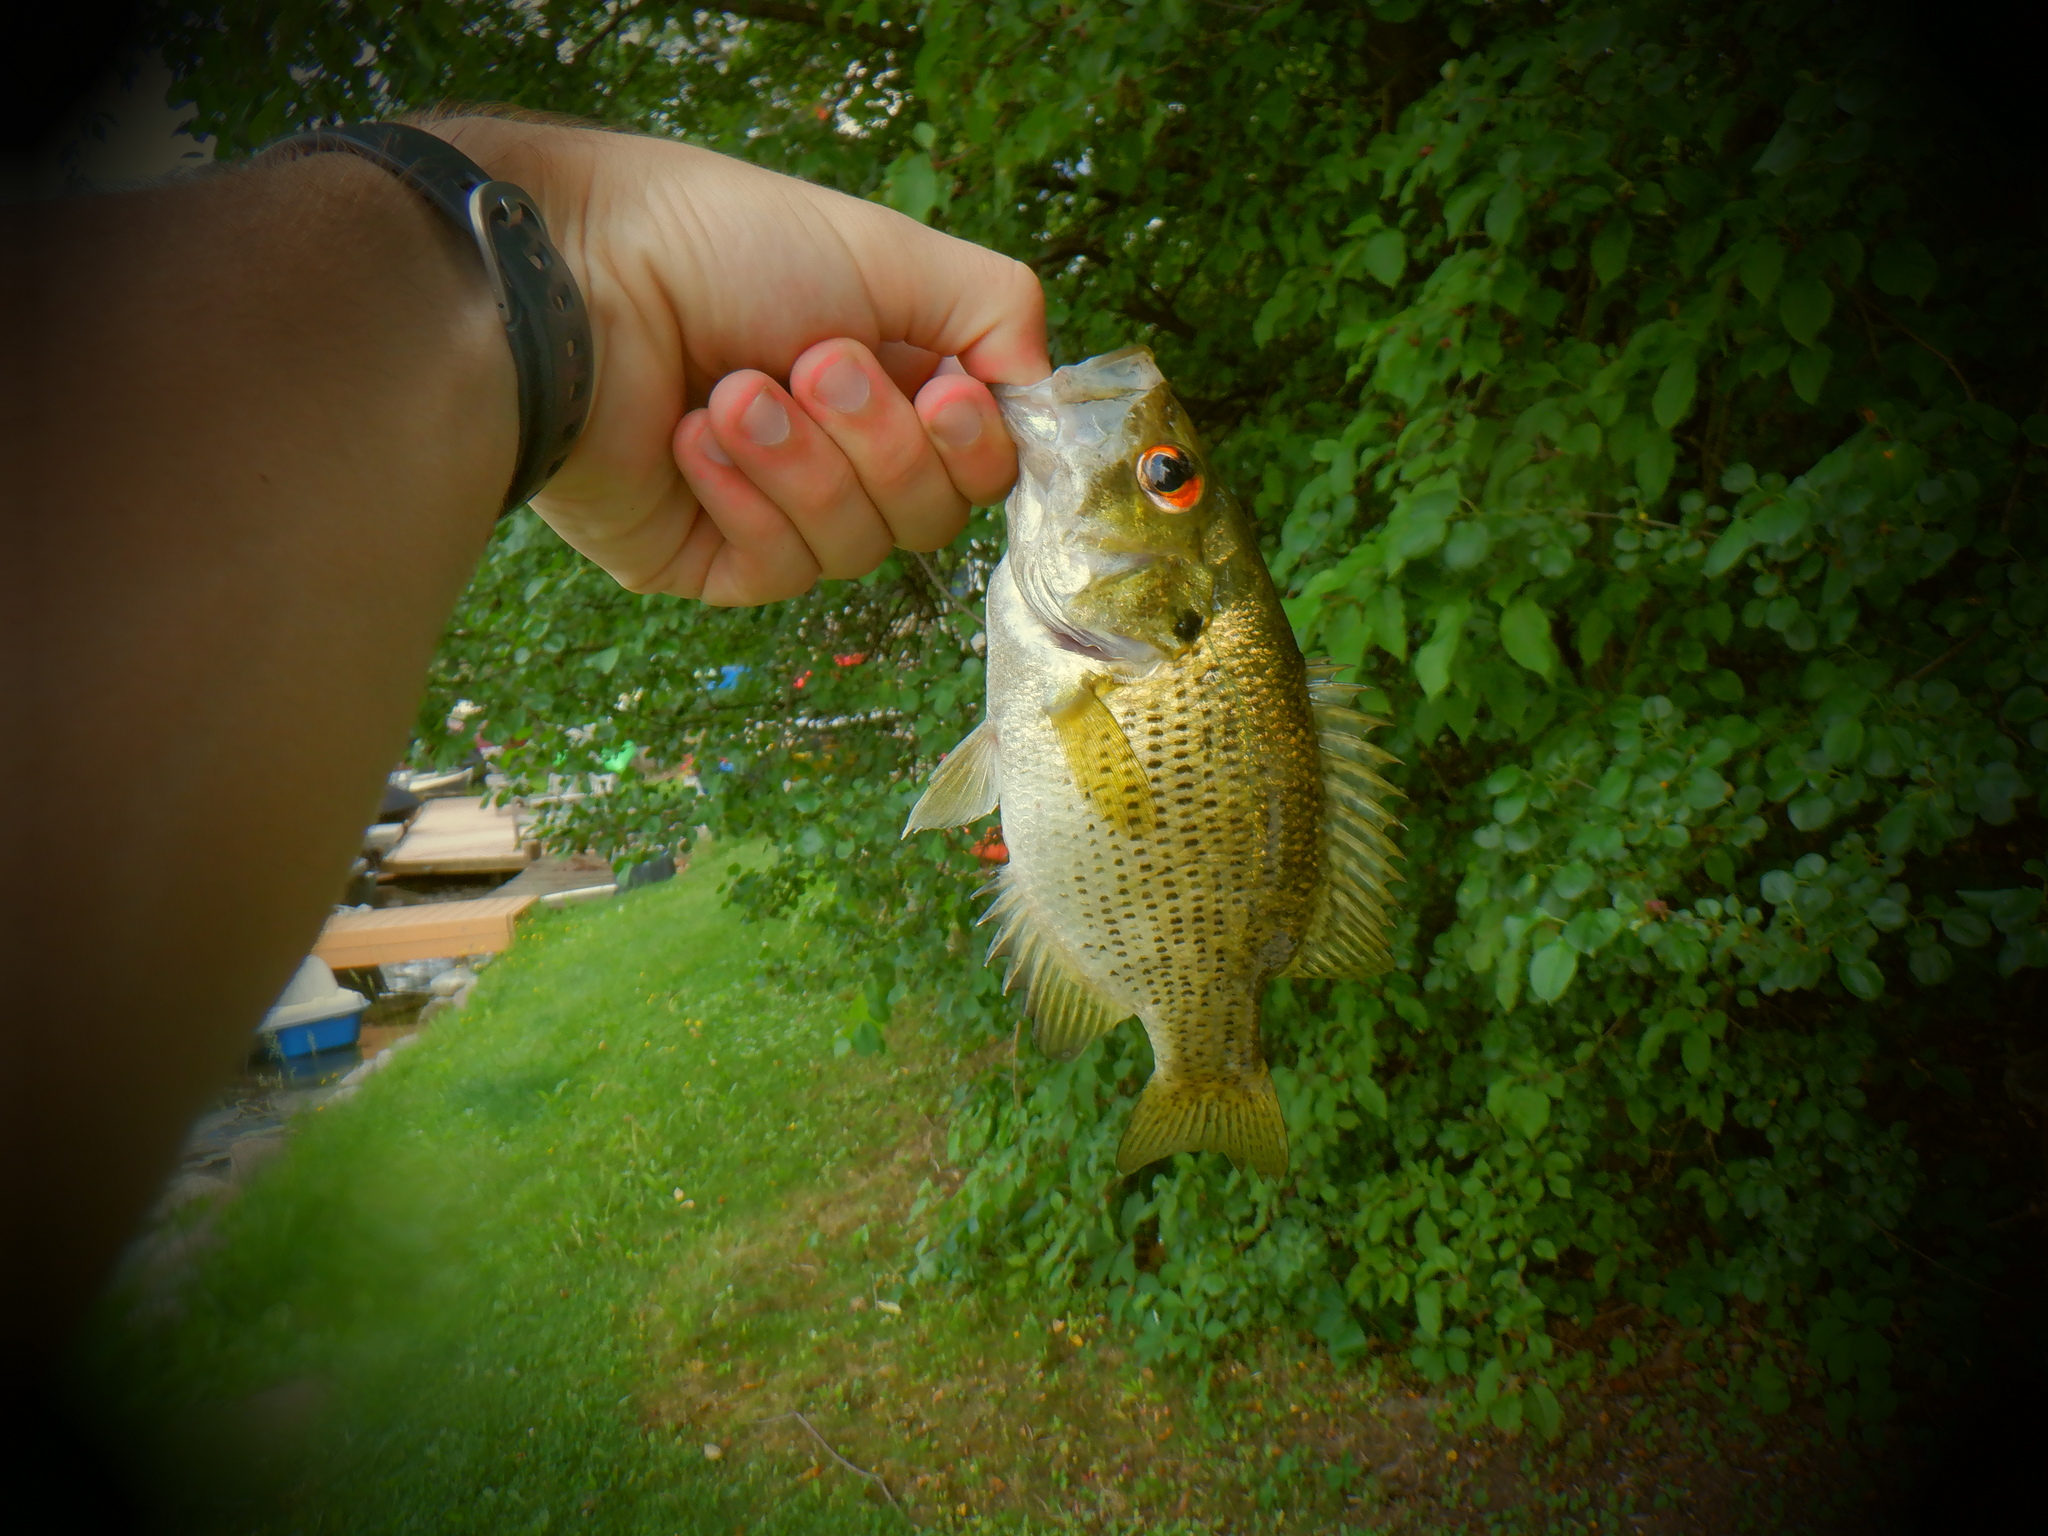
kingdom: Animalia
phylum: Chordata
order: Perciformes
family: Centrarchidae
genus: Ambloplites
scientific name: Ambloplites rupestris
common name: Rock bass
